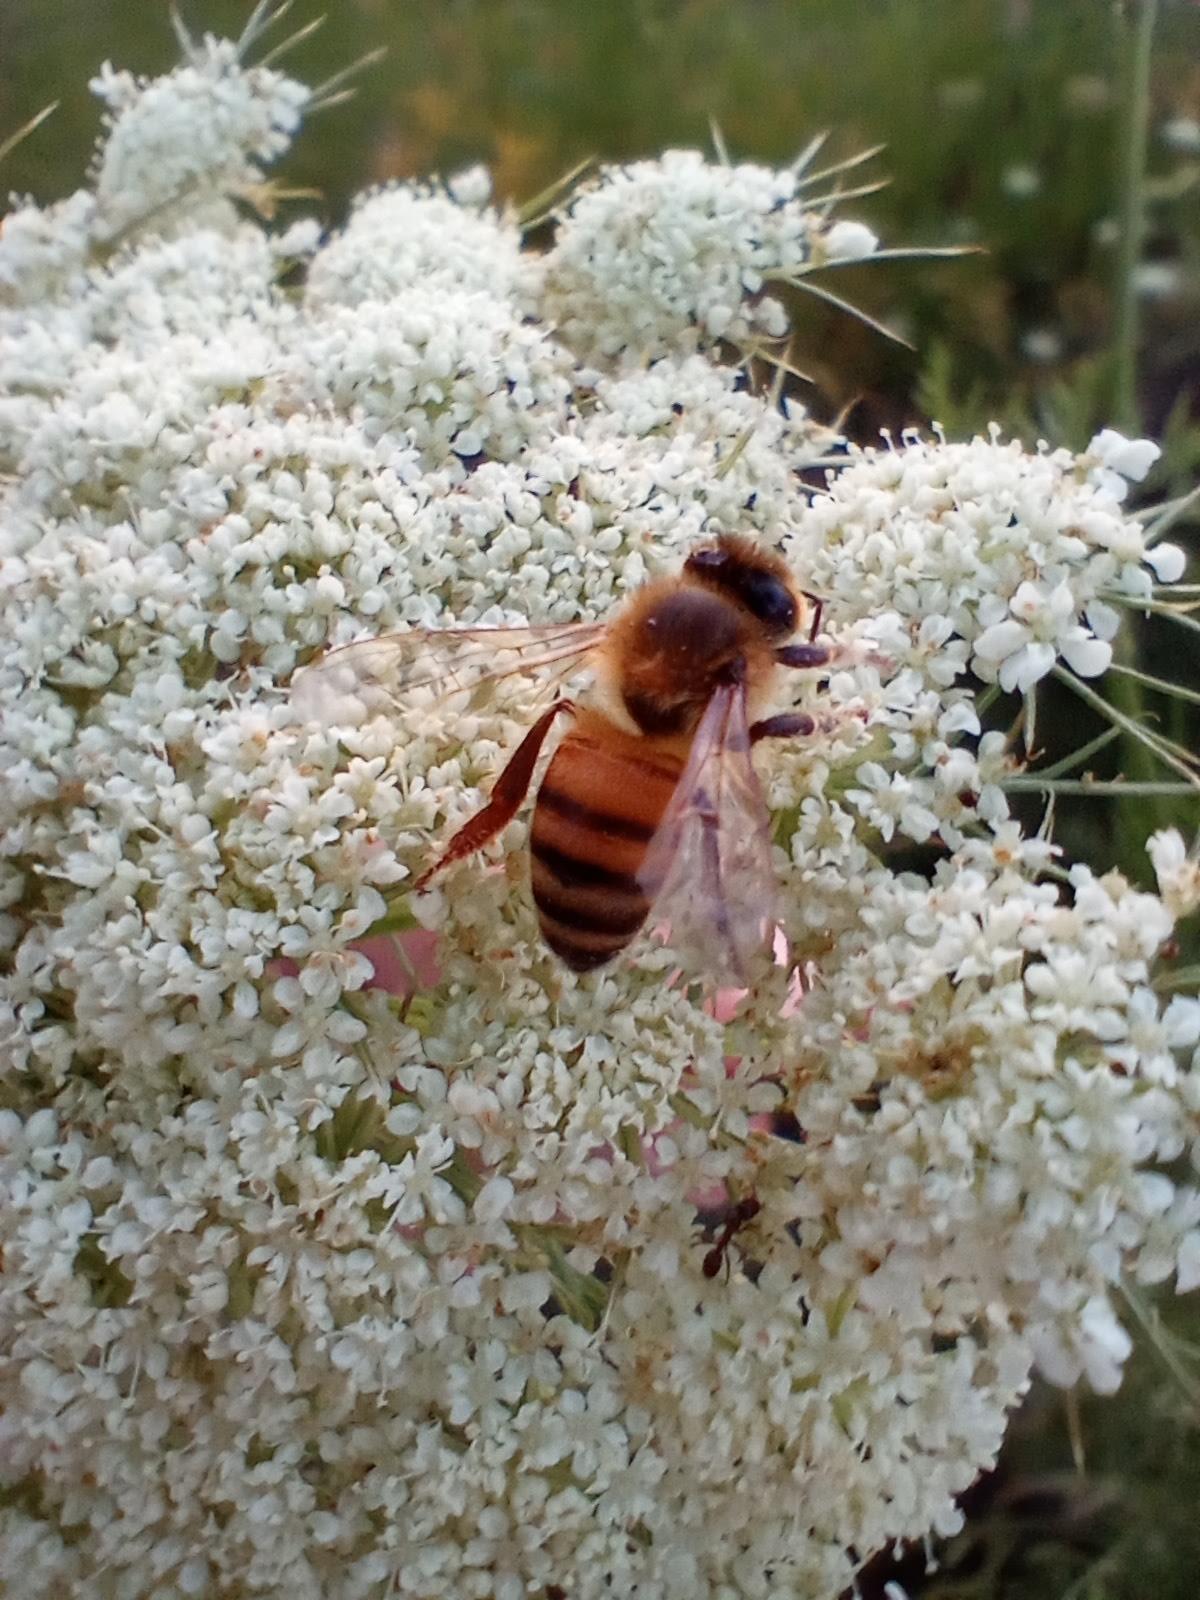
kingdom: Animalia
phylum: Arthropoda
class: Insecta
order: Hymenoptera
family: Apidae
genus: Apis
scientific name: Apis mellifera
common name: Honey bee
